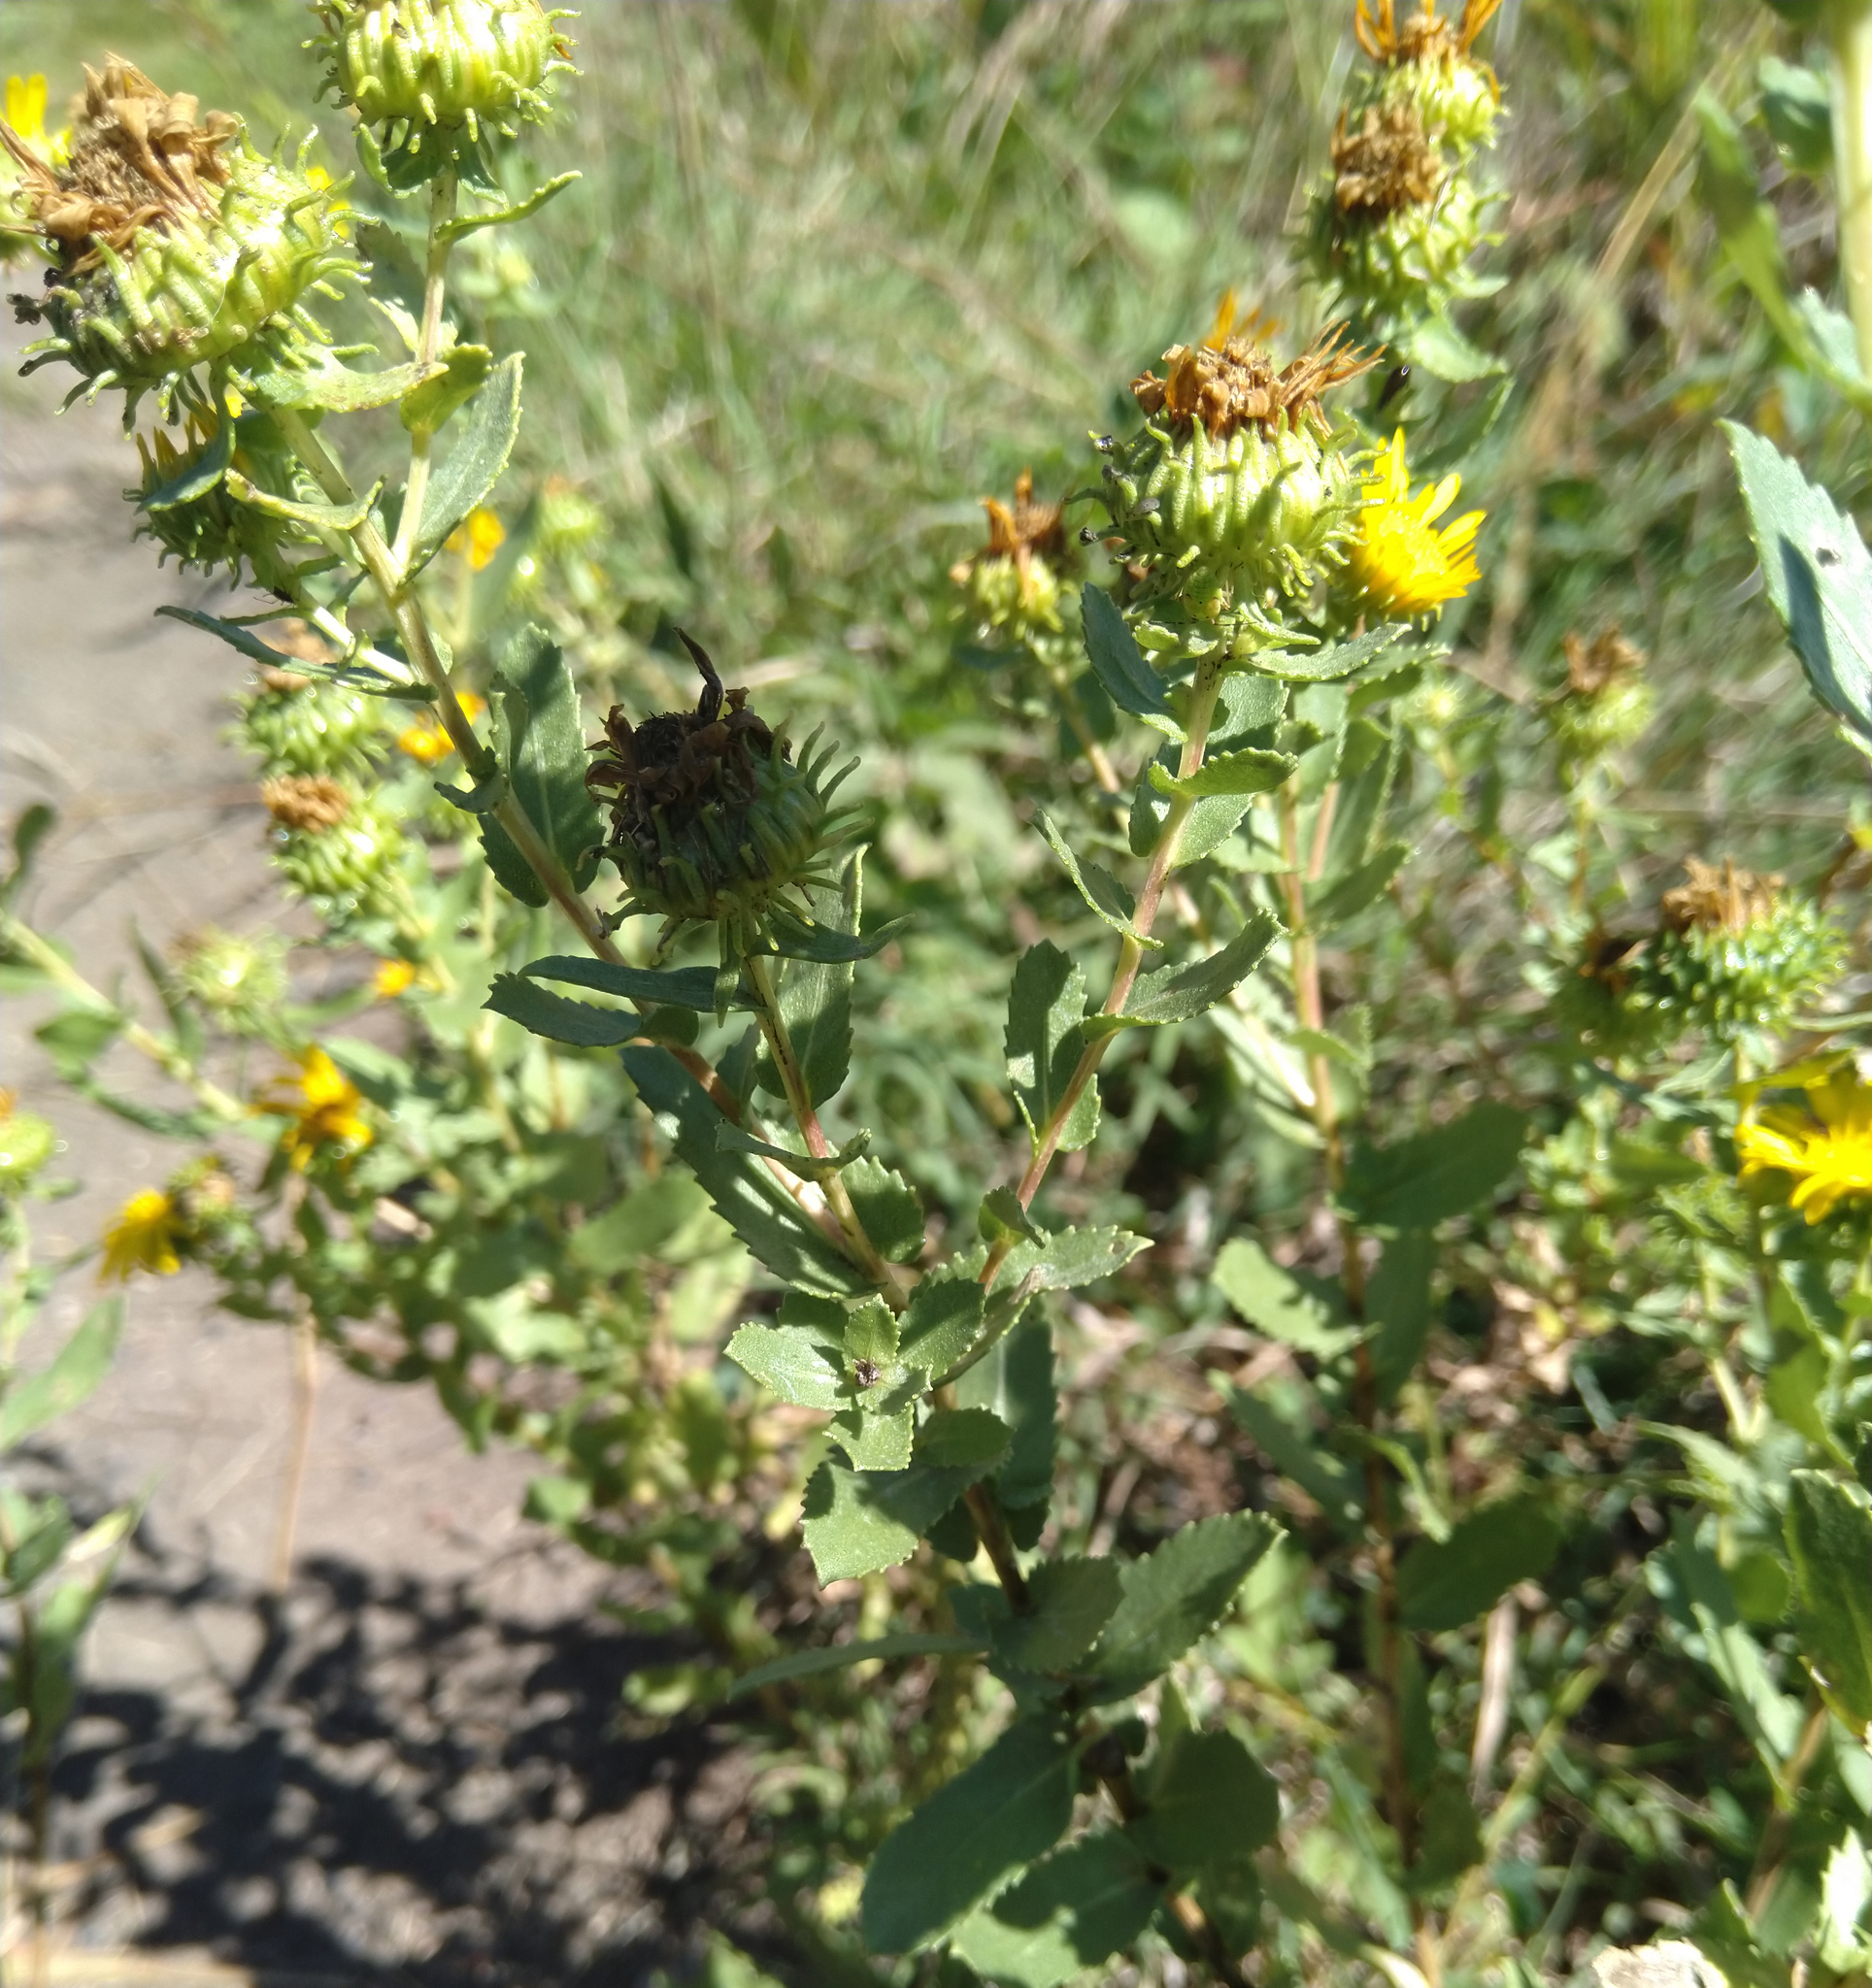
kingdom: Plantae
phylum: Tracheophyta
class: Magnoliopsida
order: Asterales
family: Asteraceae
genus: Grindelia
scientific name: Grindelia squarrosa
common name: Curly-cup gumweed
